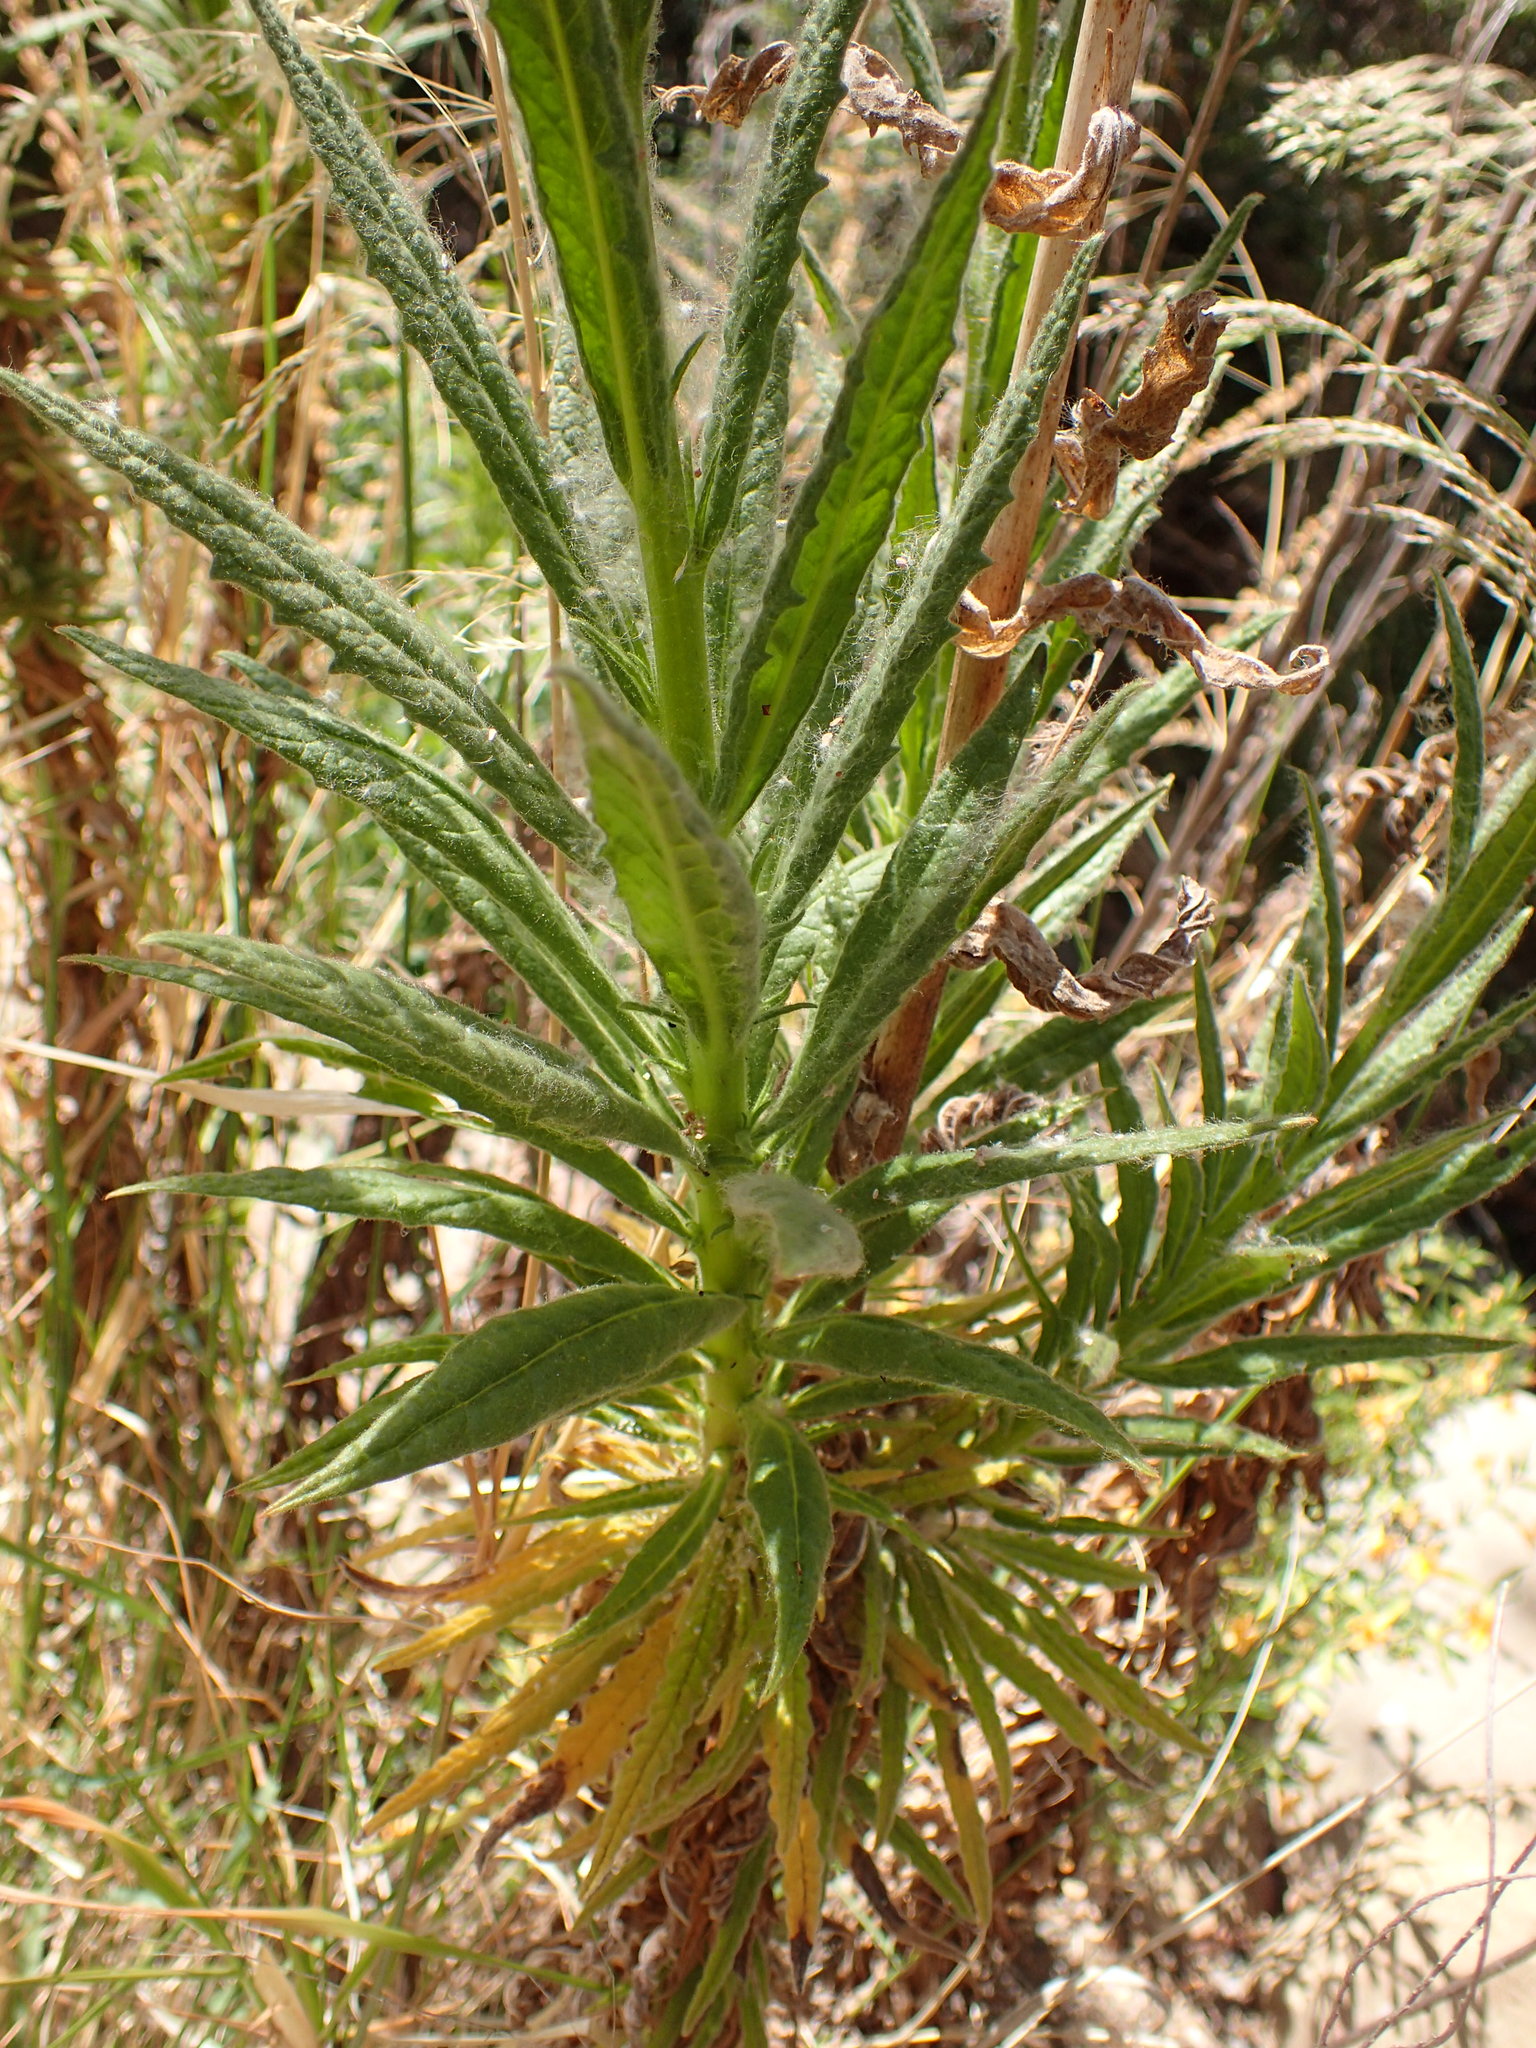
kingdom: Plantae
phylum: Tracheophyta
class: Magnoliopsida
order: Boraginales
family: Namaceae
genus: Turricula
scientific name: Turricula parryi
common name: Poodle-dog-bush
